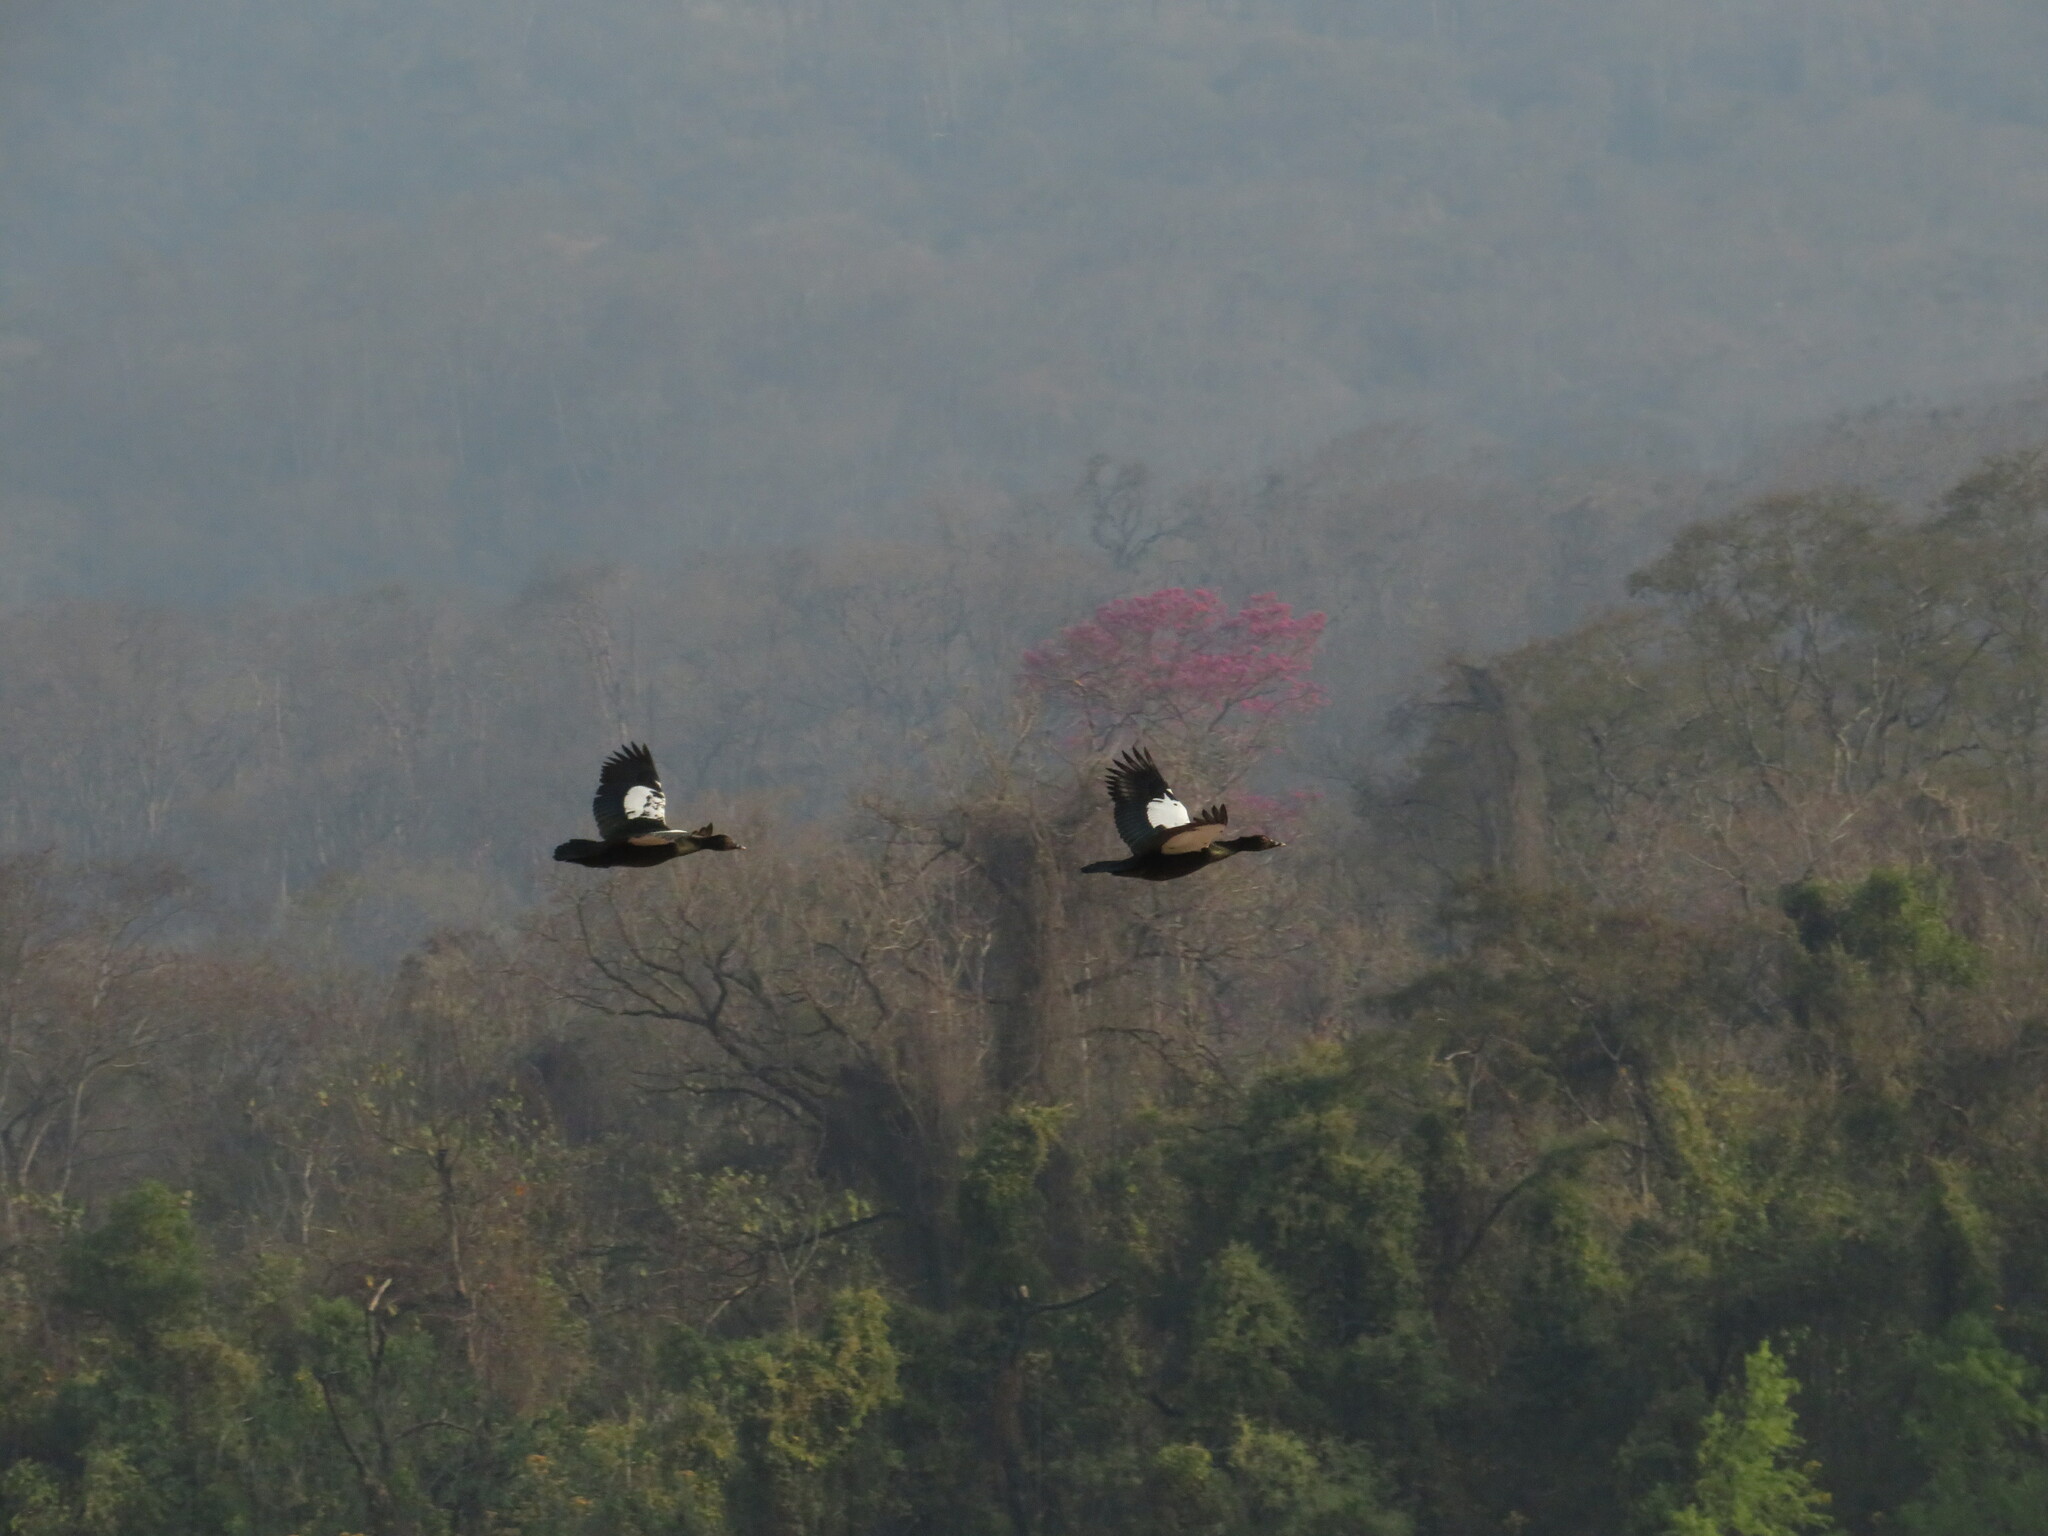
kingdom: Animalia
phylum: Chordata
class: Aves
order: Anseriformes
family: Anatidae
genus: Cairina
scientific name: Cairina moschata
